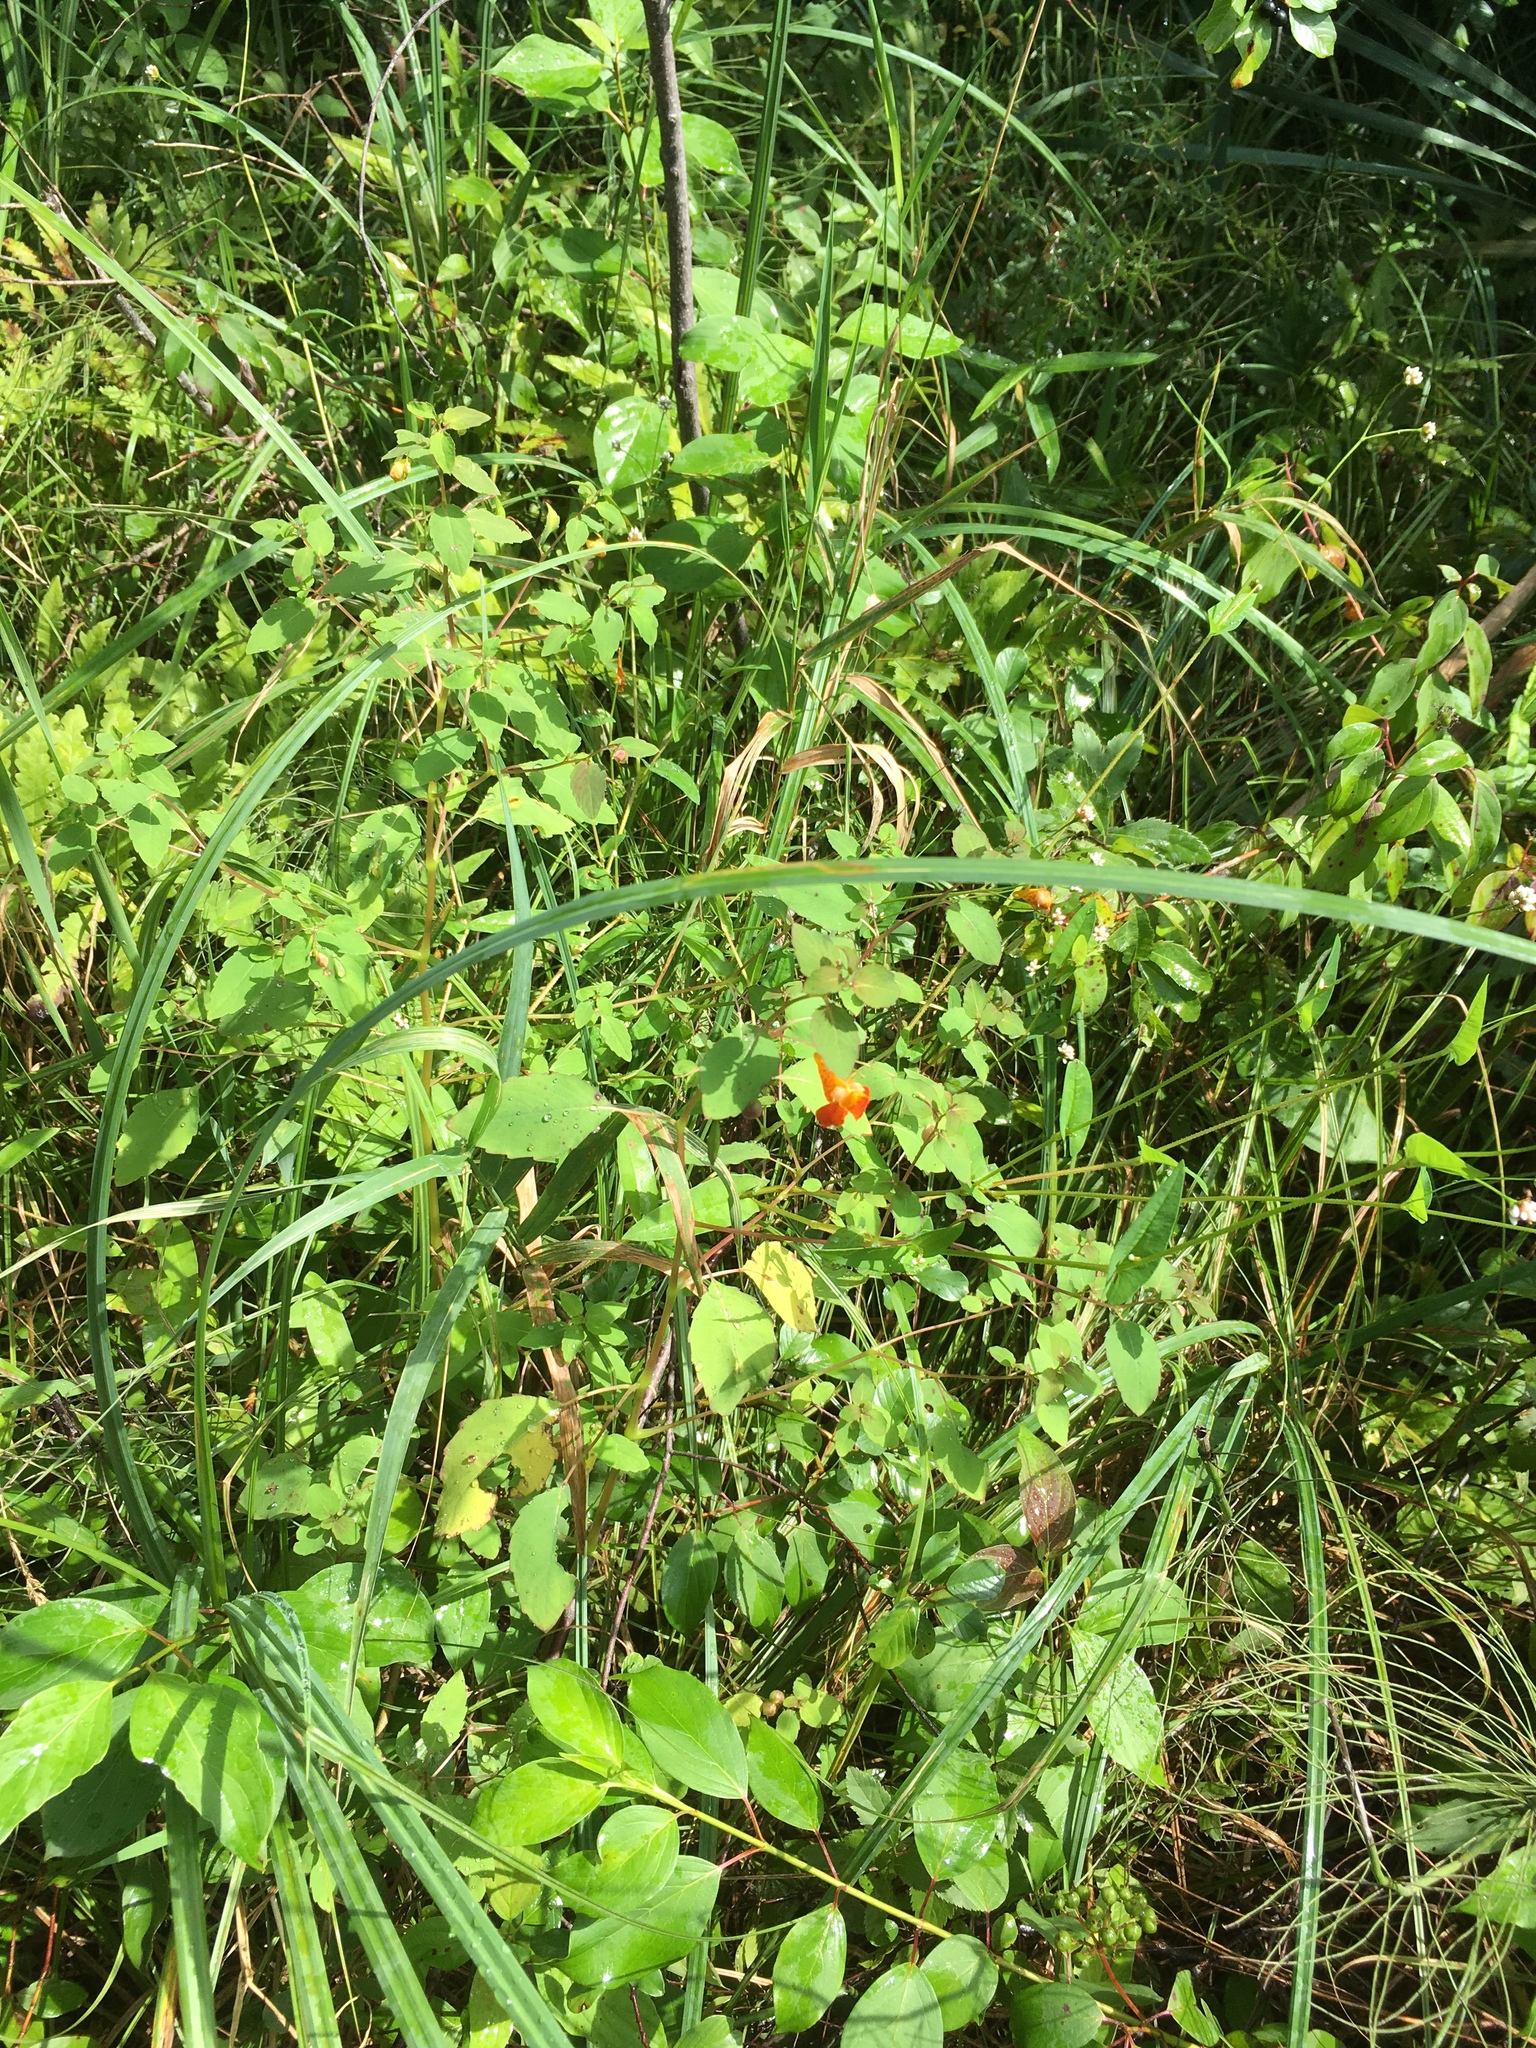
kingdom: Plantae
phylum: Tracheophyta
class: Magnoliopsida
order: Ericales
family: Balsaminaceae
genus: Impatiens
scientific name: Impatiens capensis
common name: Orange balsam
